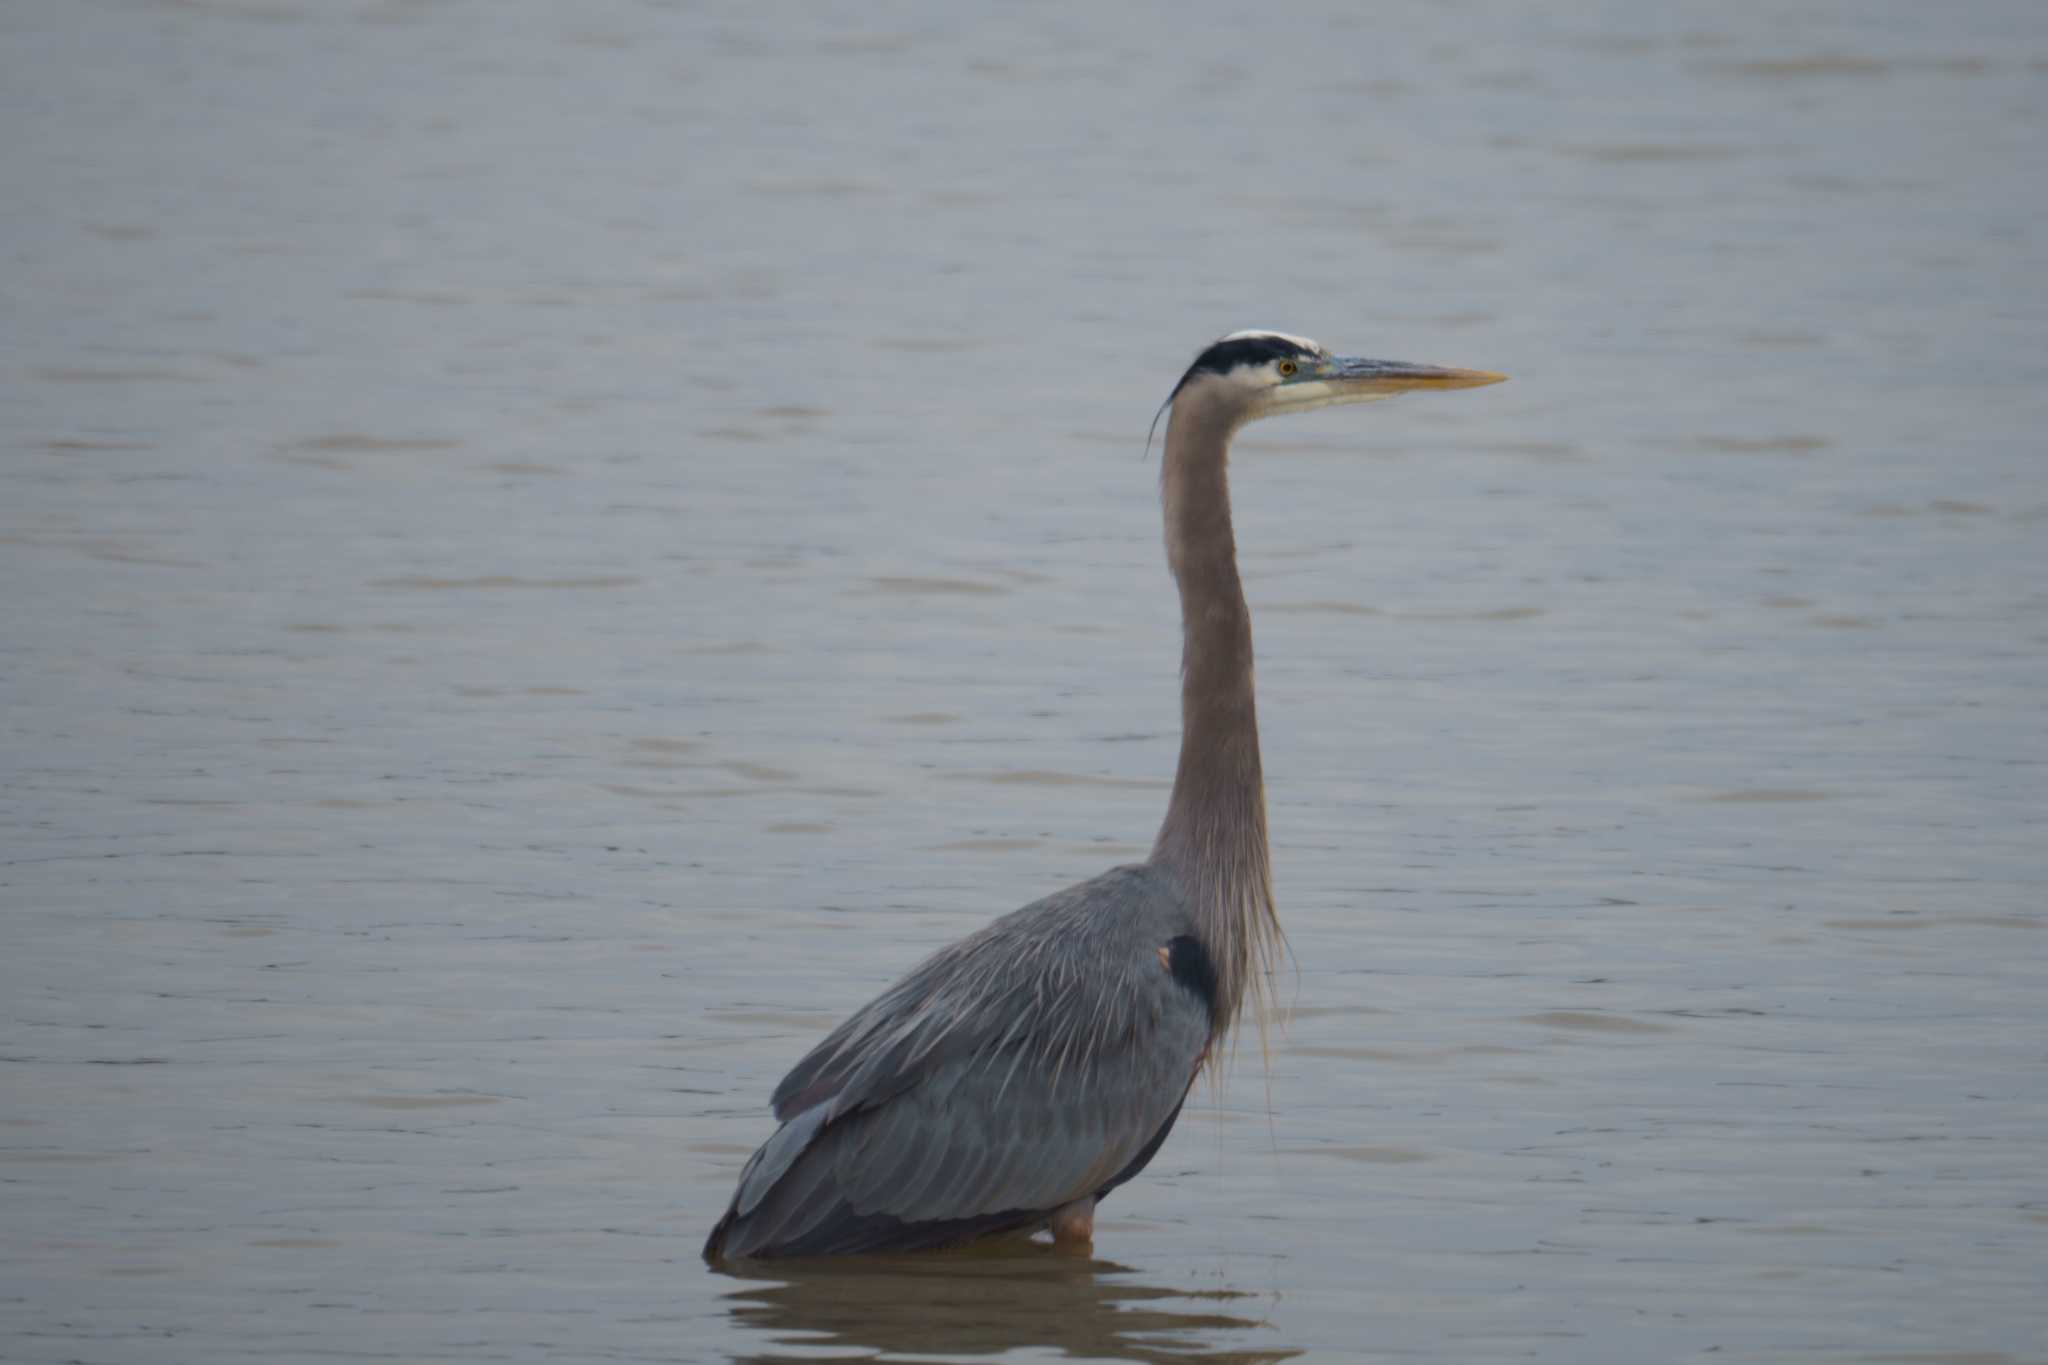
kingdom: Animalia
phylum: Chordata
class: Aves
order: Pelecaniformes
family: Ardeidae
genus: Ardea
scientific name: Ardea herodias
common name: Great blue heron
